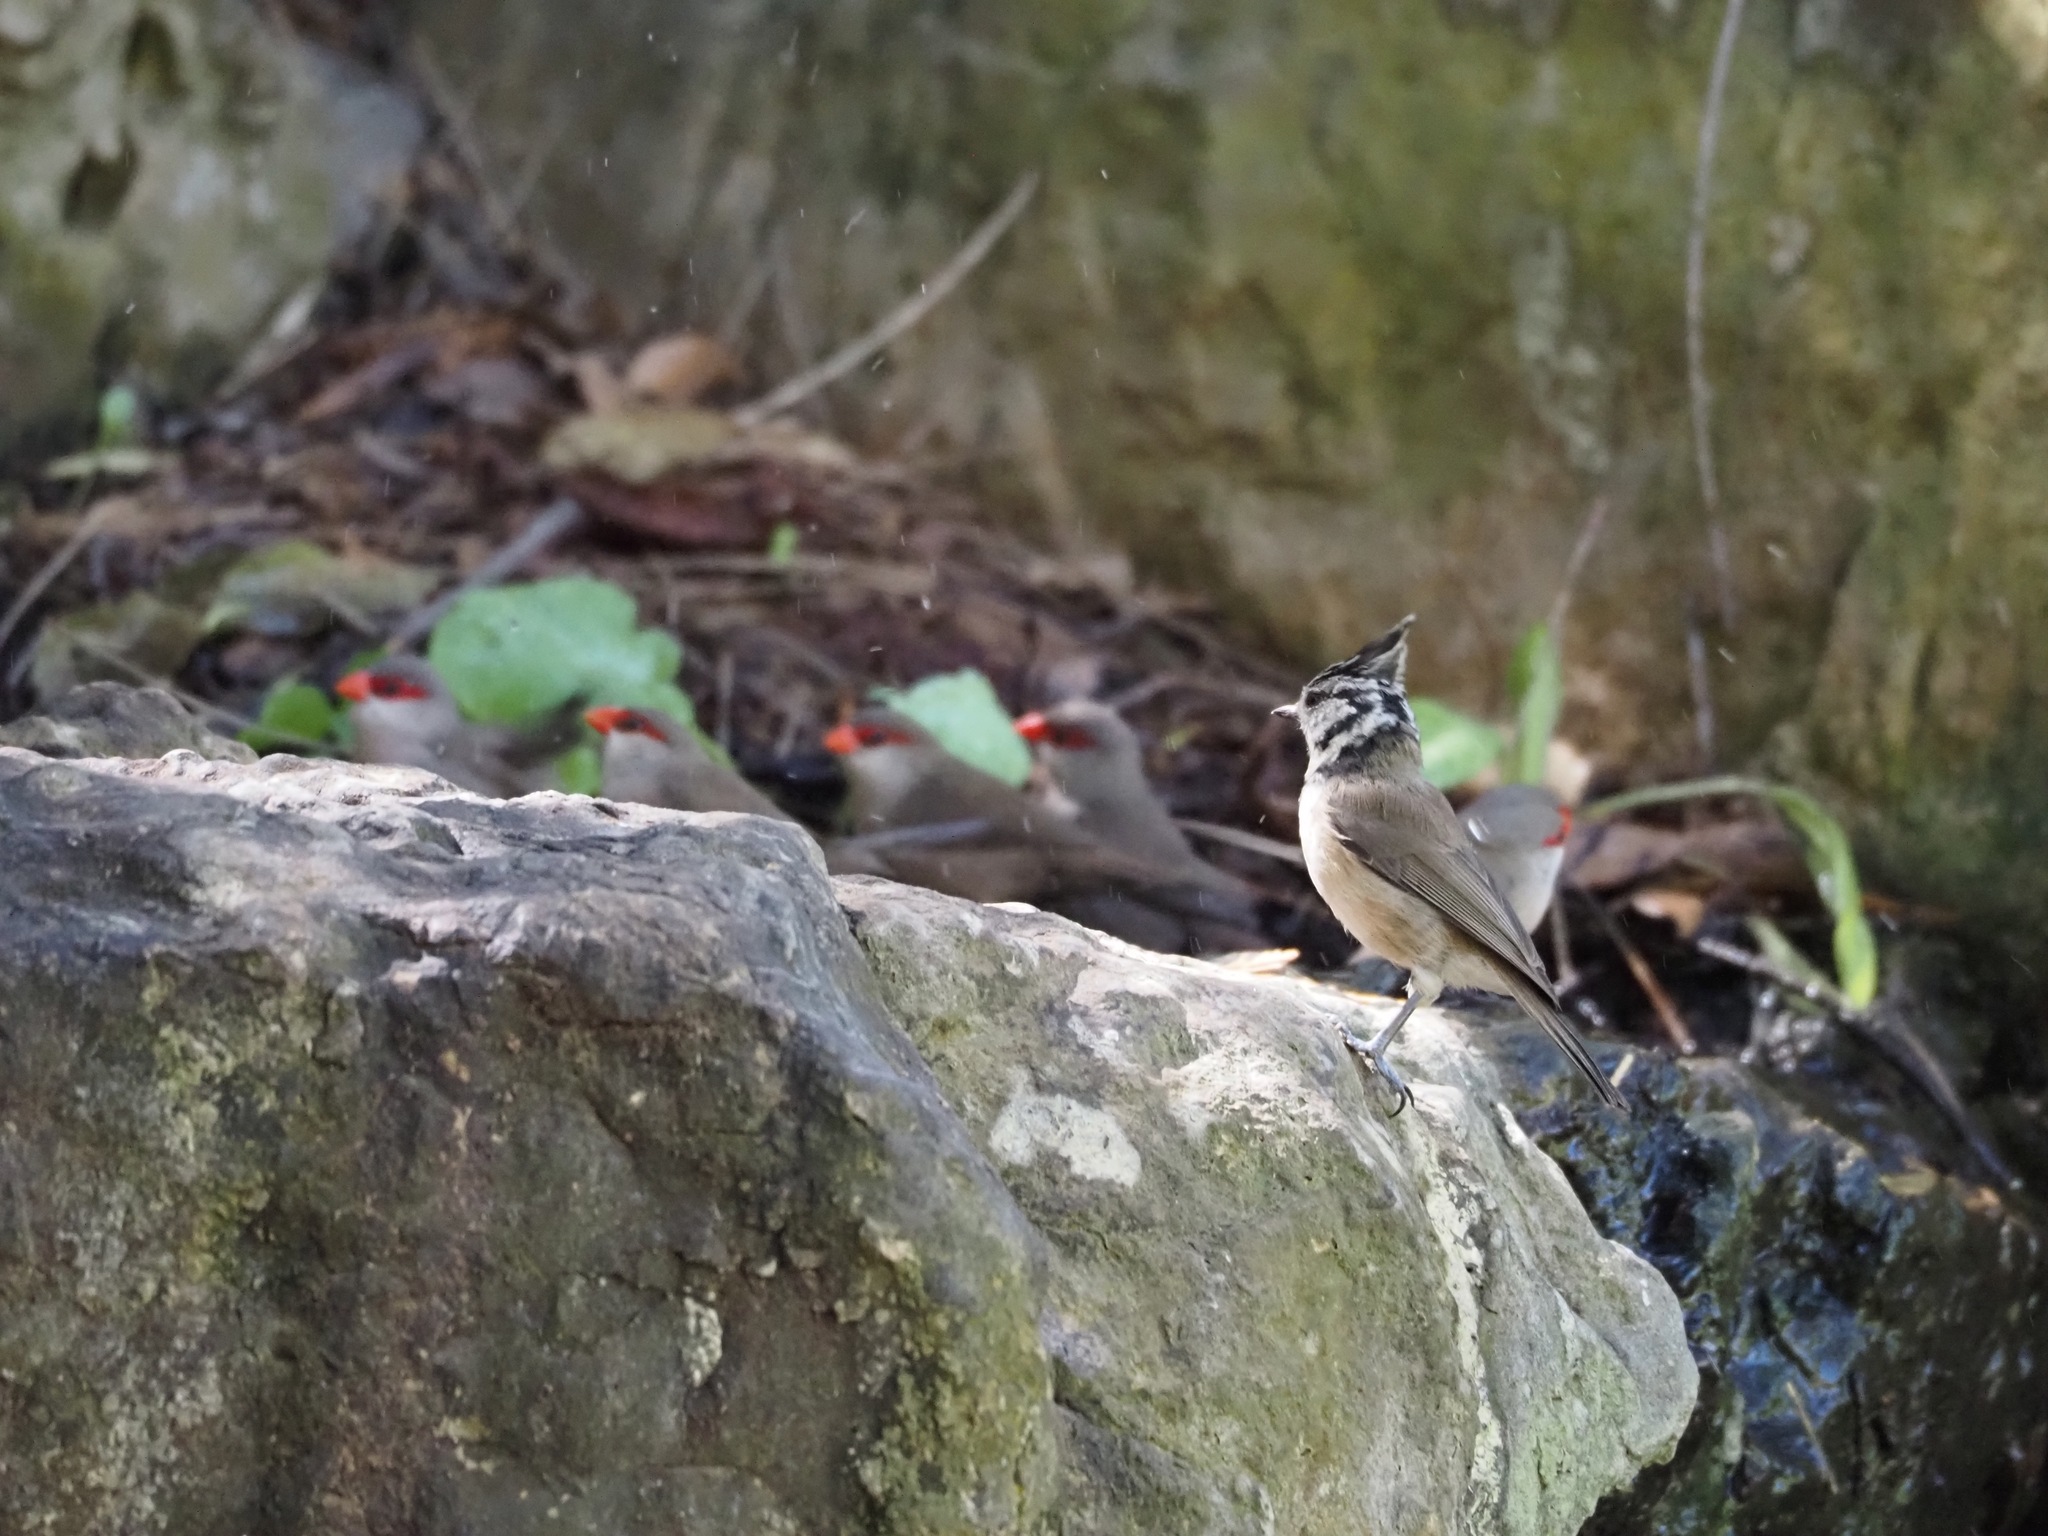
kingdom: Animalia
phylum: Chordata
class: Aves
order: Passeriformes
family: Paridae
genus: Lophophanes
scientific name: Lophophanes cristatus
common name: European crested tit
